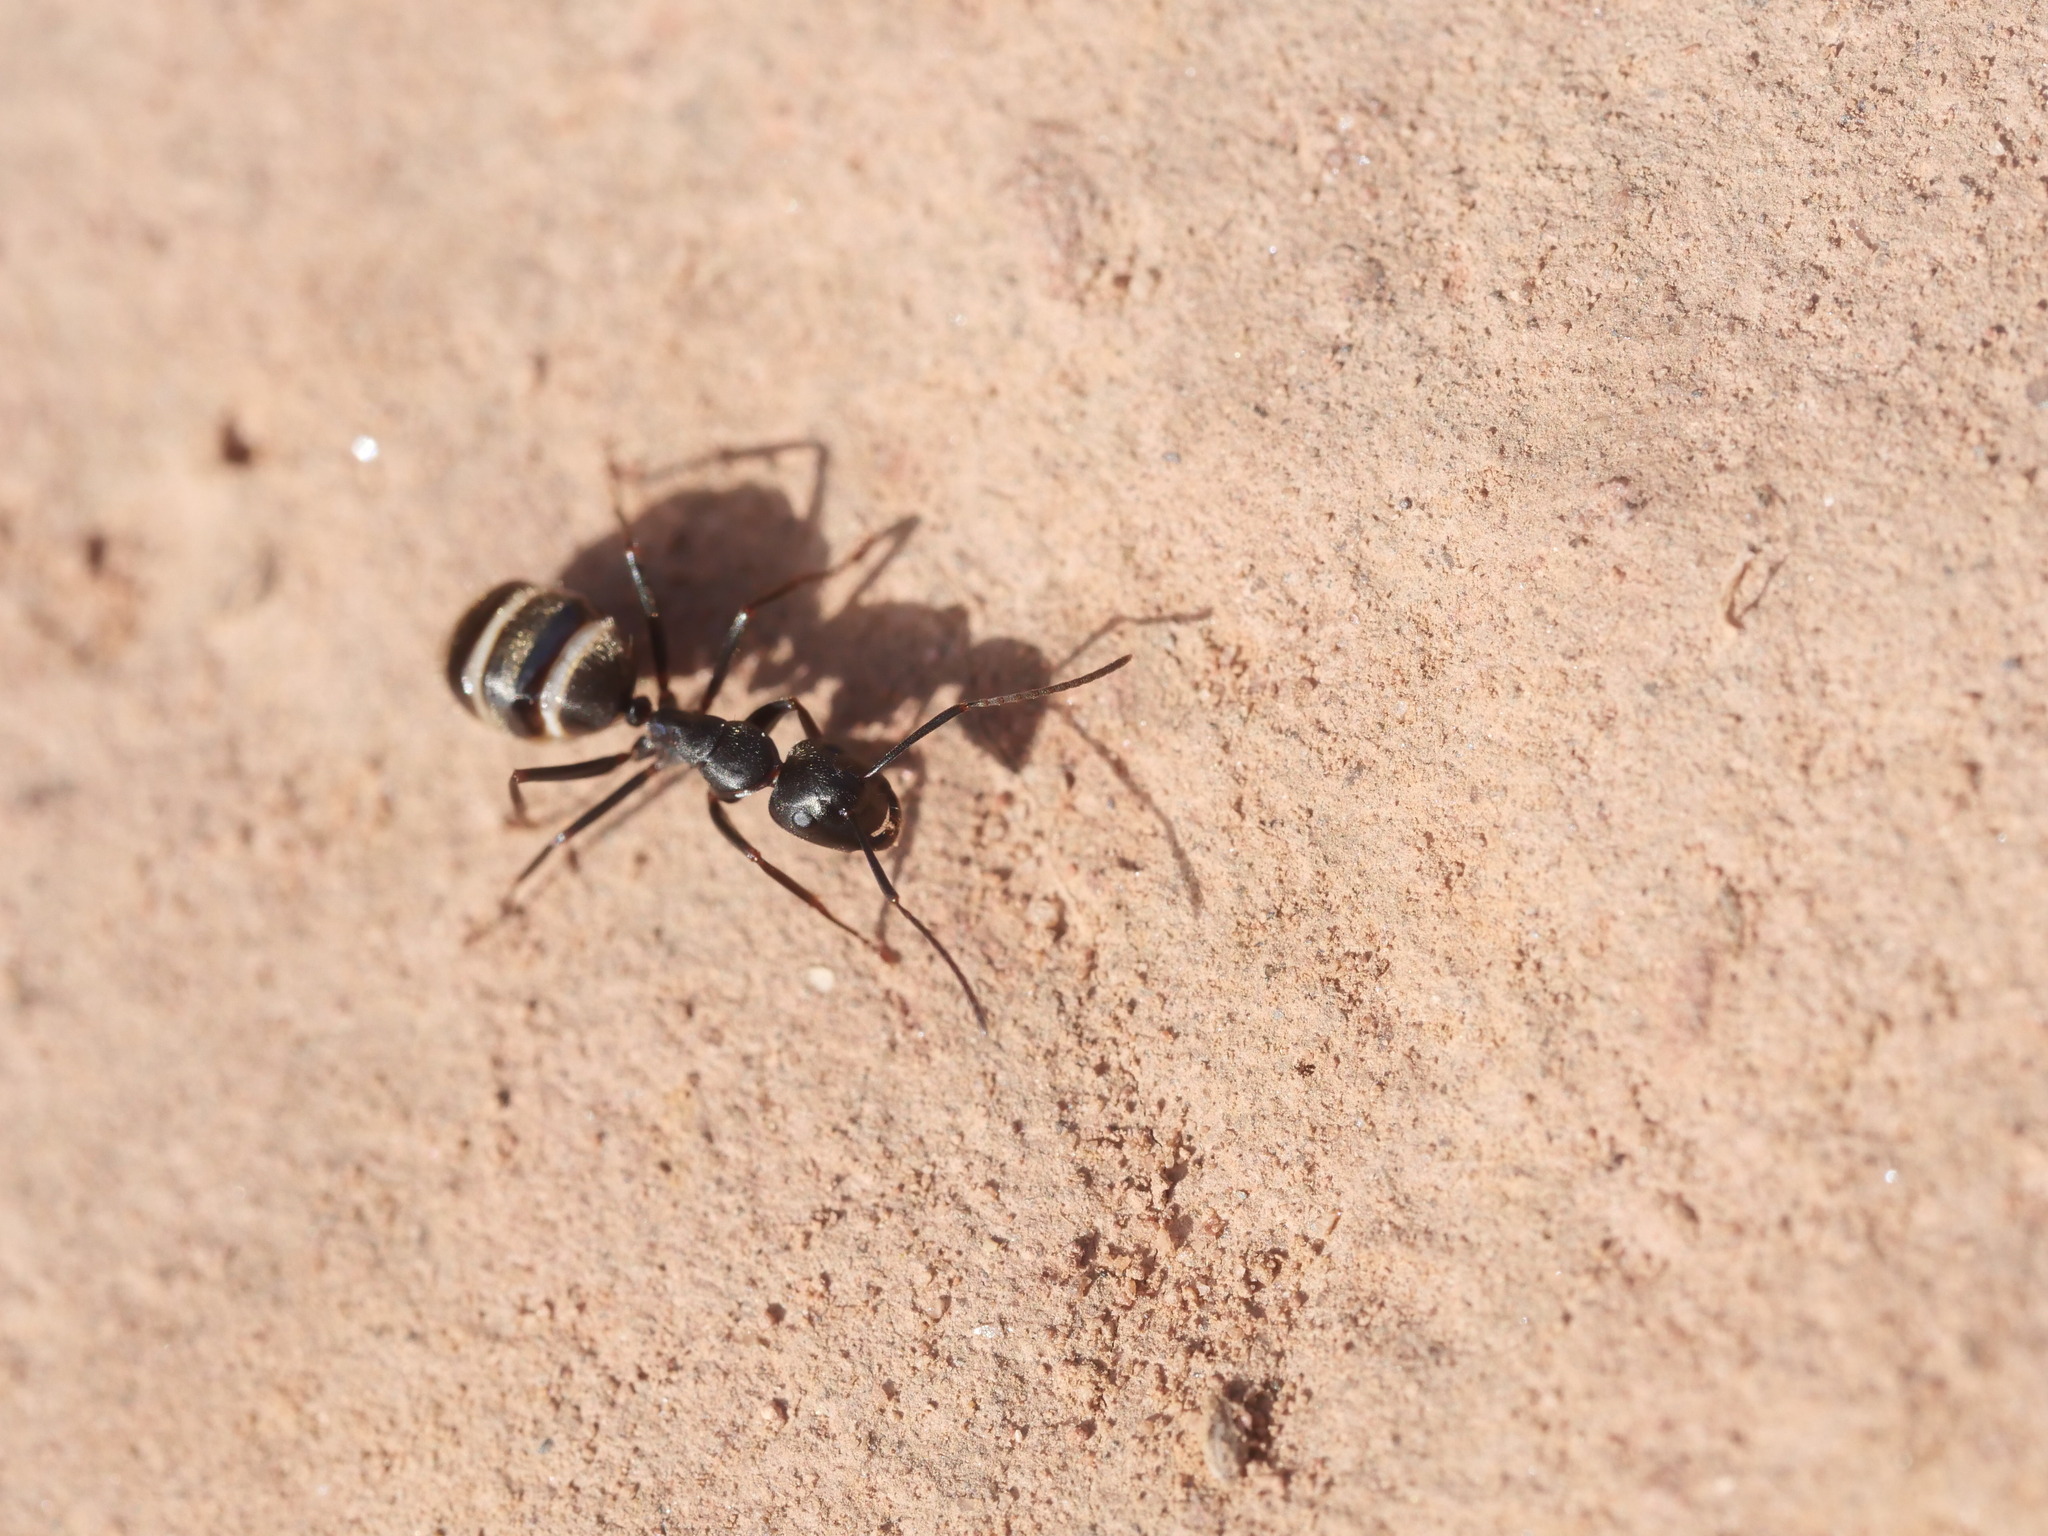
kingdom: Animalia
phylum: Arthropoda
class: Insecta
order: Hymenoptera
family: Formicidae
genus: Camponotus
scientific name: Camponotus pennsylvanicus
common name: Black carpenter ant
